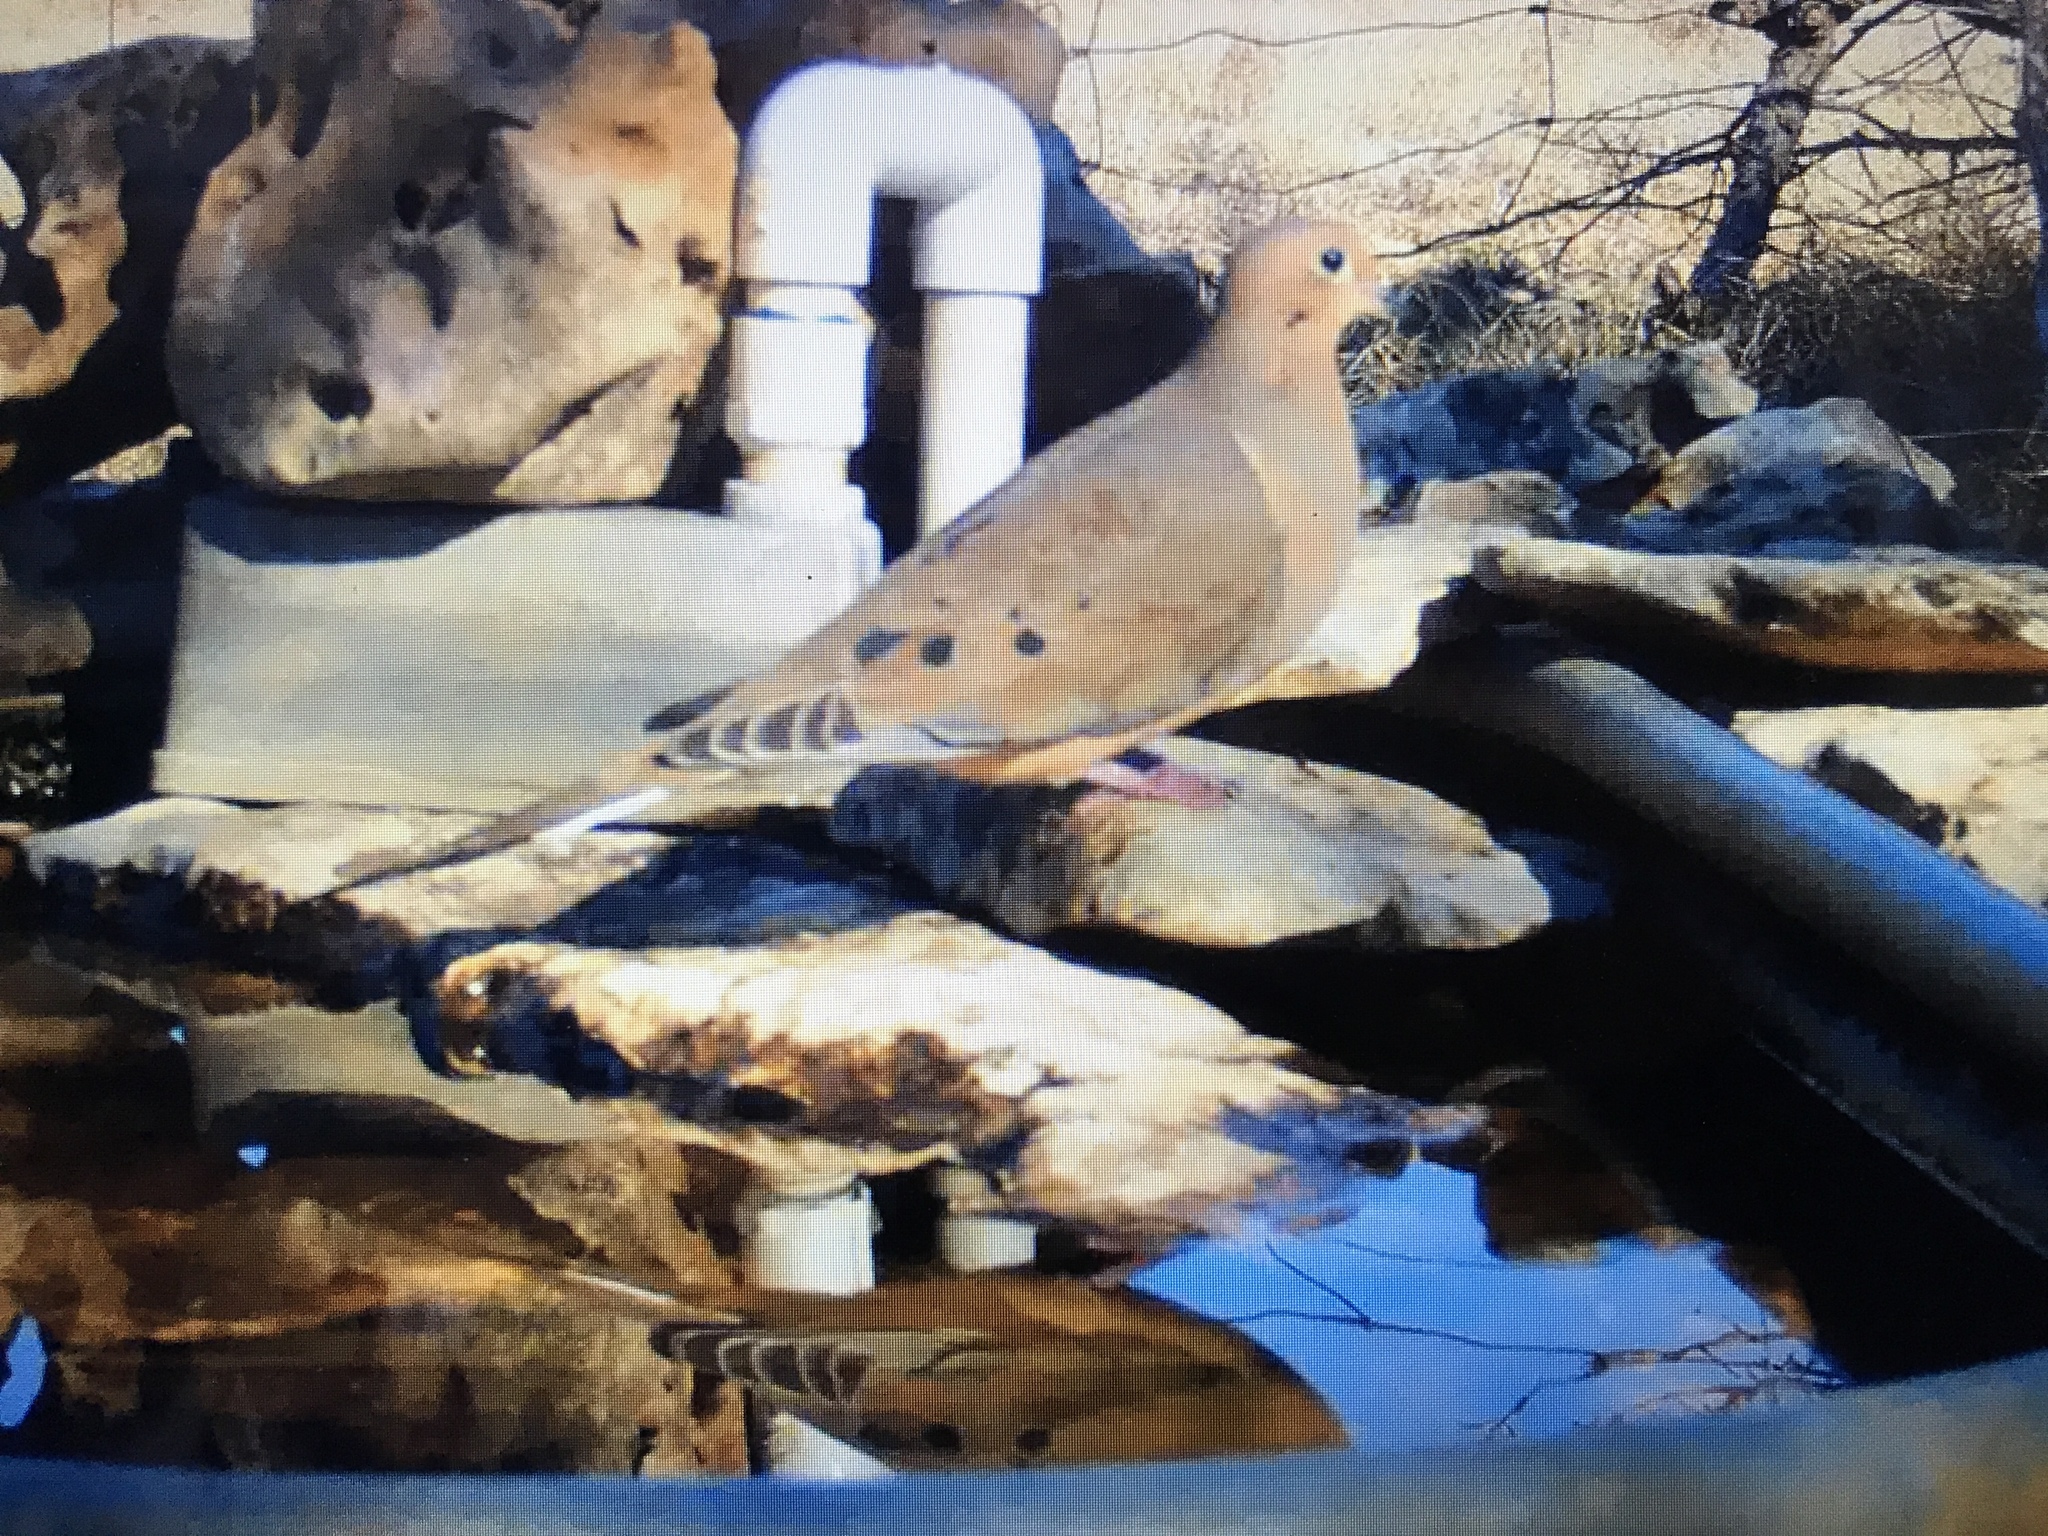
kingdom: Animalia
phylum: Chordata
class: Aves
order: Columbiformes
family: Columbidae
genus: Zenaida
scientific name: Zenaida macroura
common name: Mourning dove
